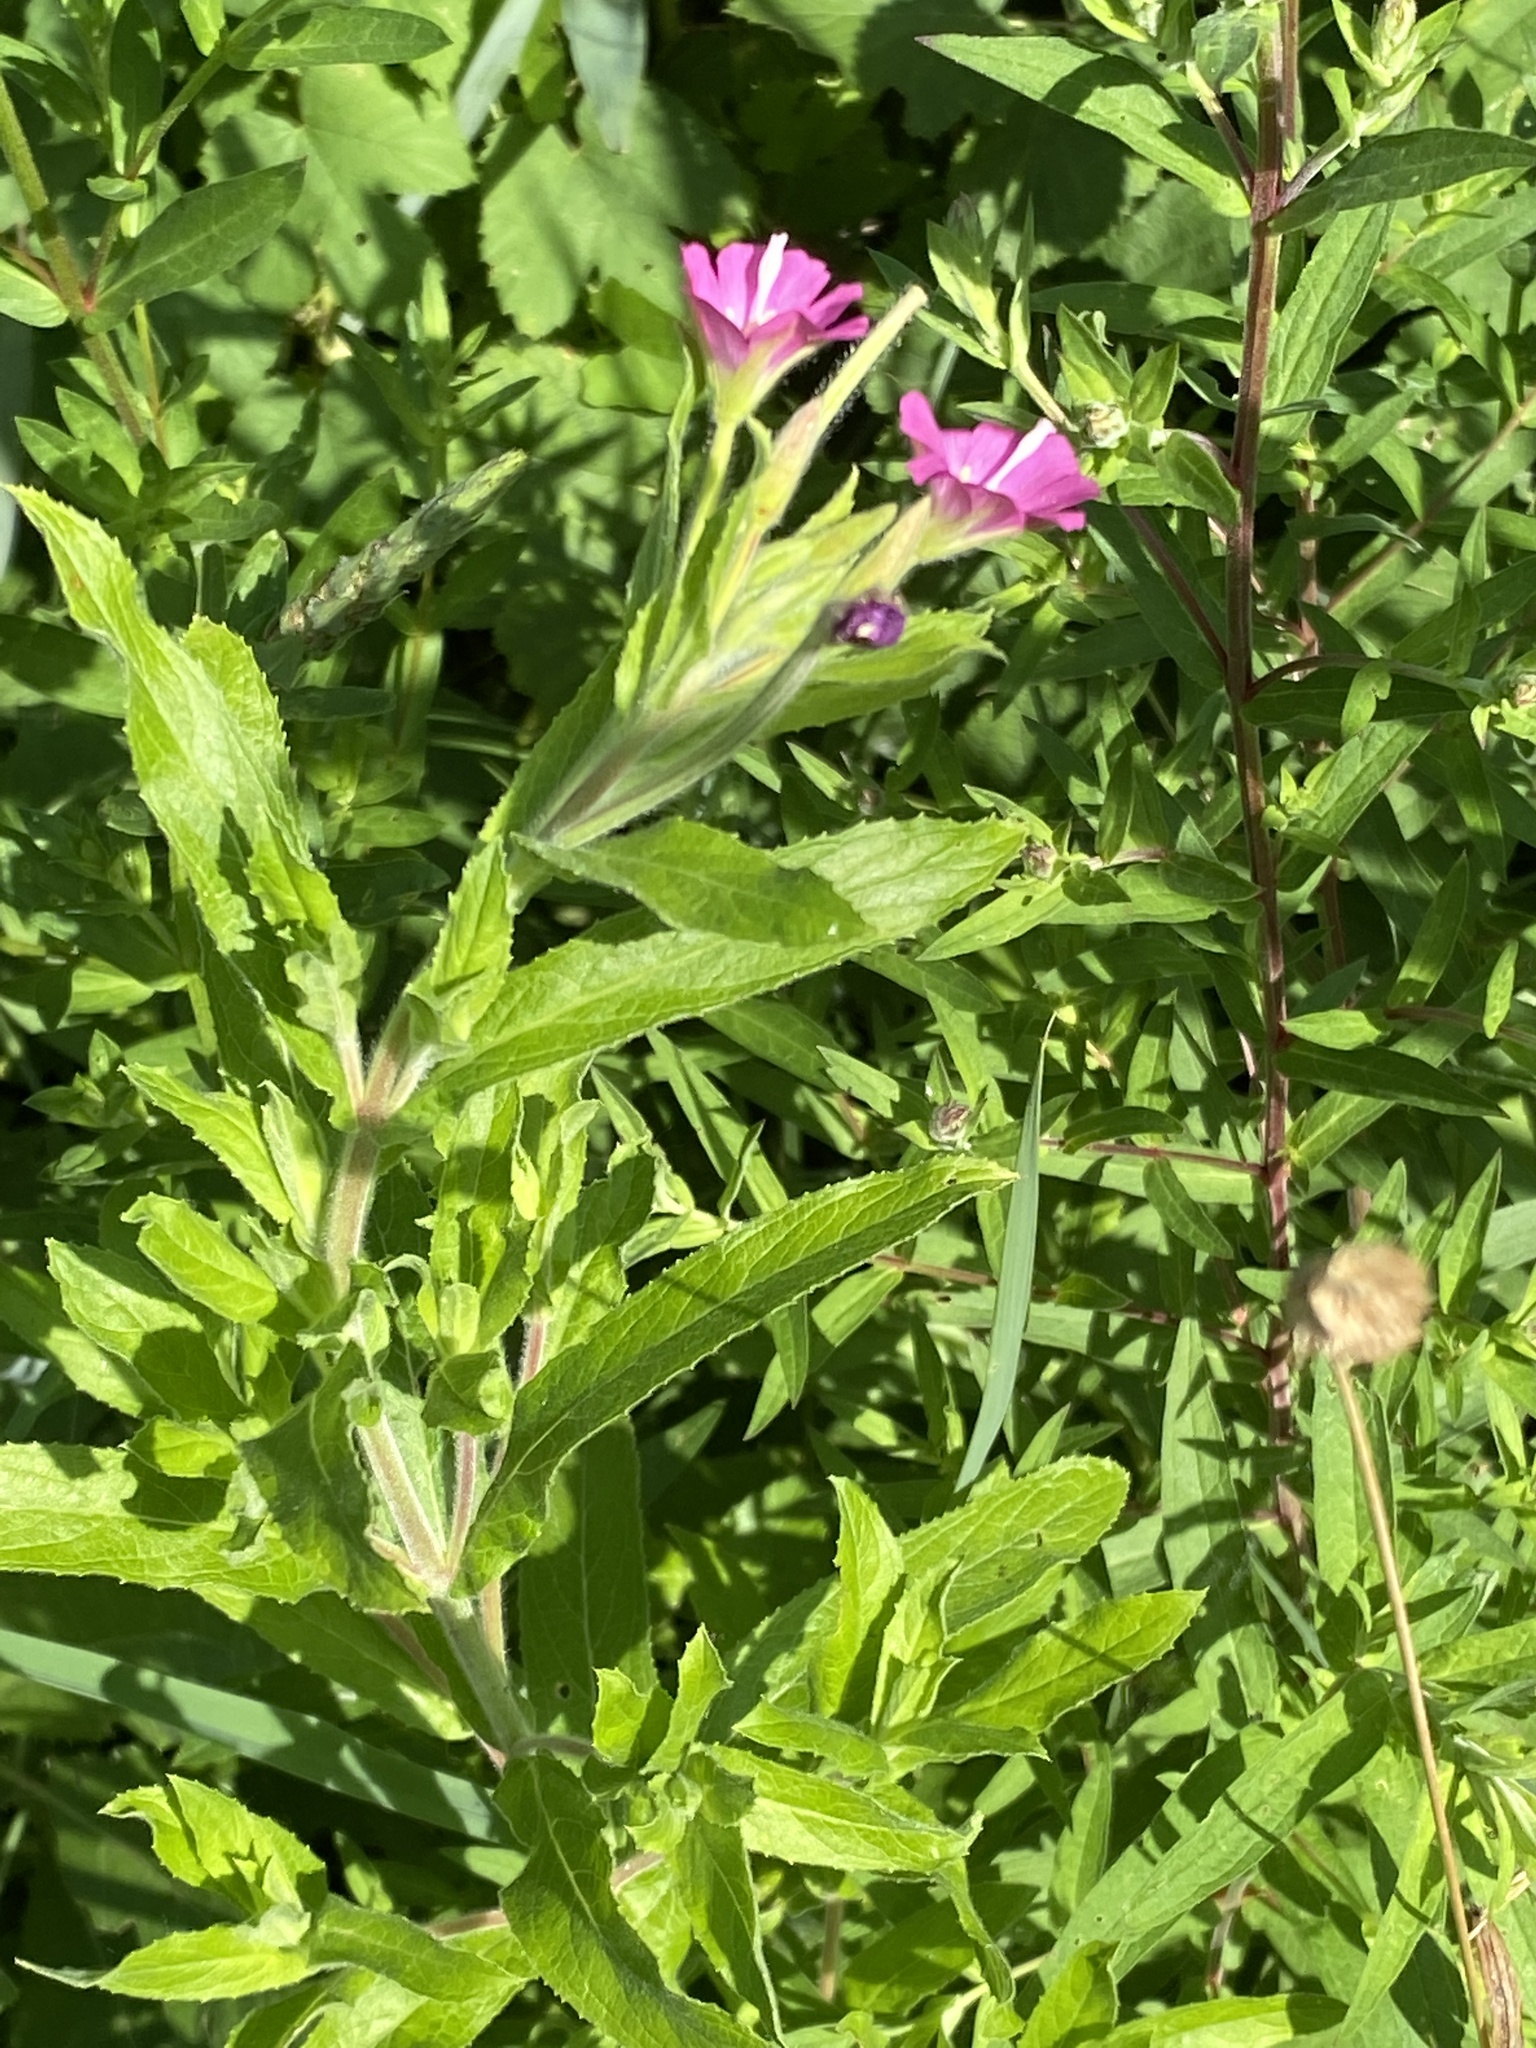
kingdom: Plantae
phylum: Tracheophyta
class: Magnoliopsida
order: Myrtales
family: Onagraceae
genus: Epilobium
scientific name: Epilobium hirsutum
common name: Great willowherb
